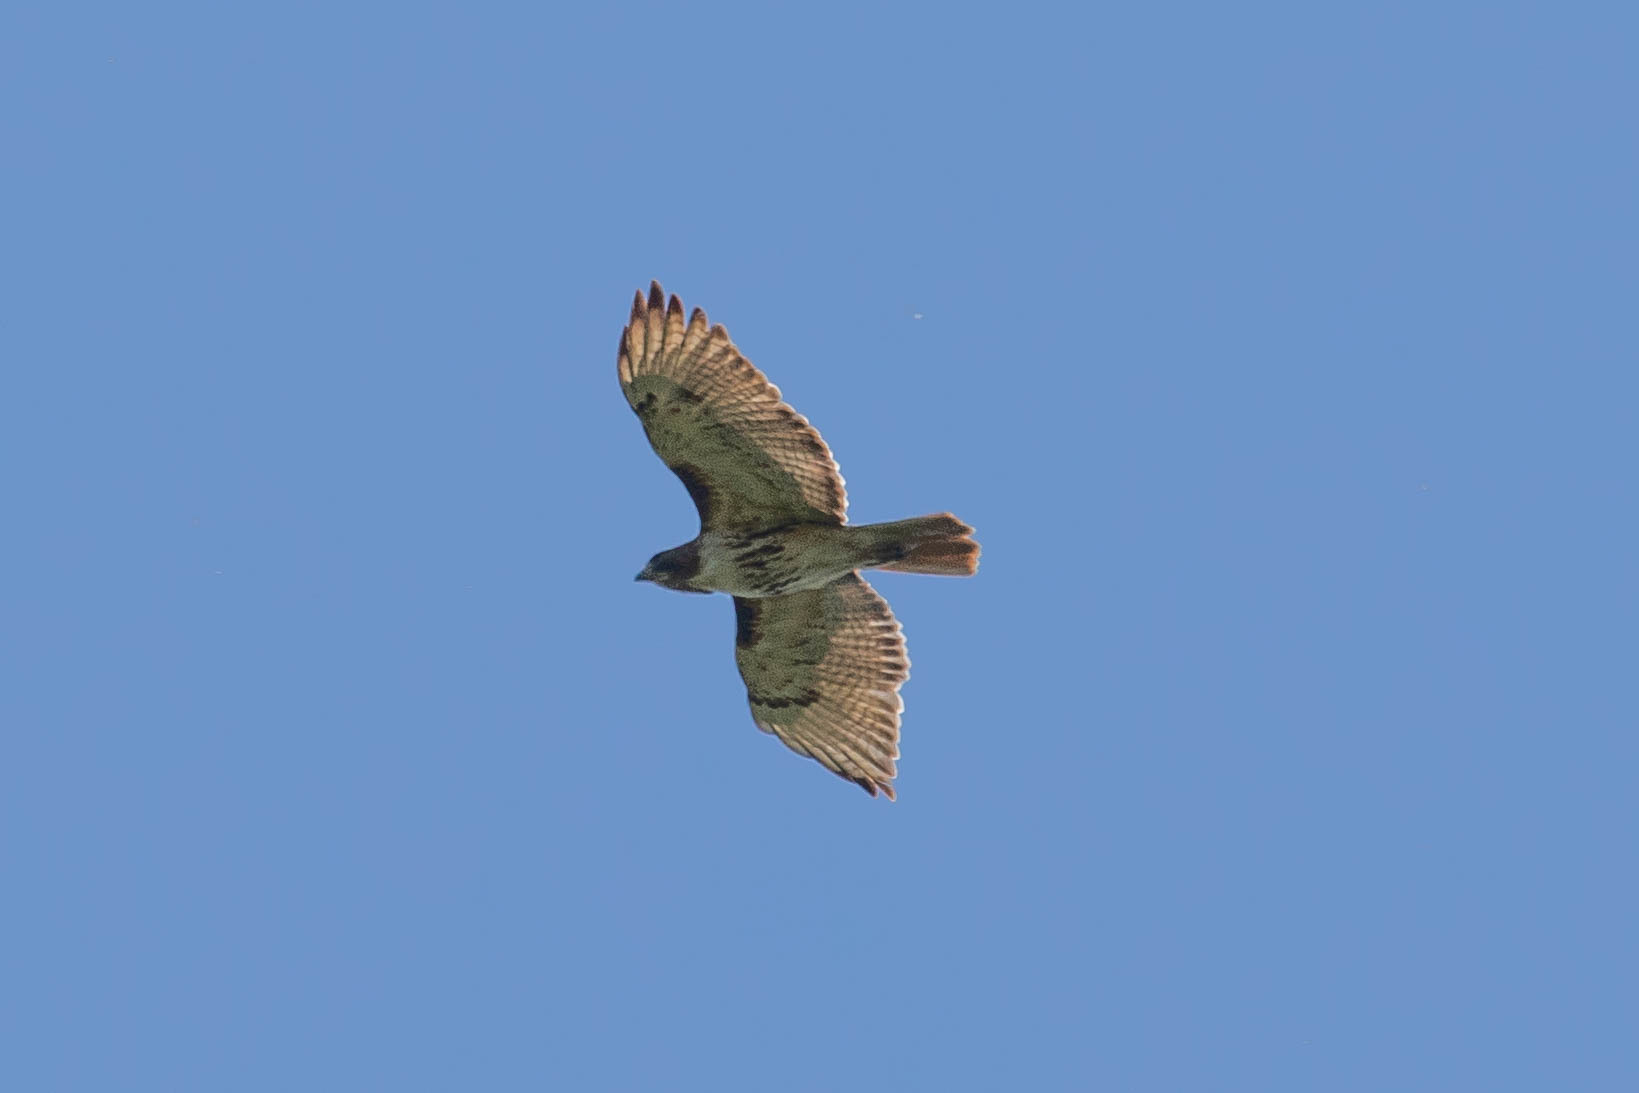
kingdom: Animalia
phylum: Chordata
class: Aves
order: Accipitriformes
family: Accipitridae
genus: Buteo
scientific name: Buteo jamaicensis
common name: Red-tailed hawk
